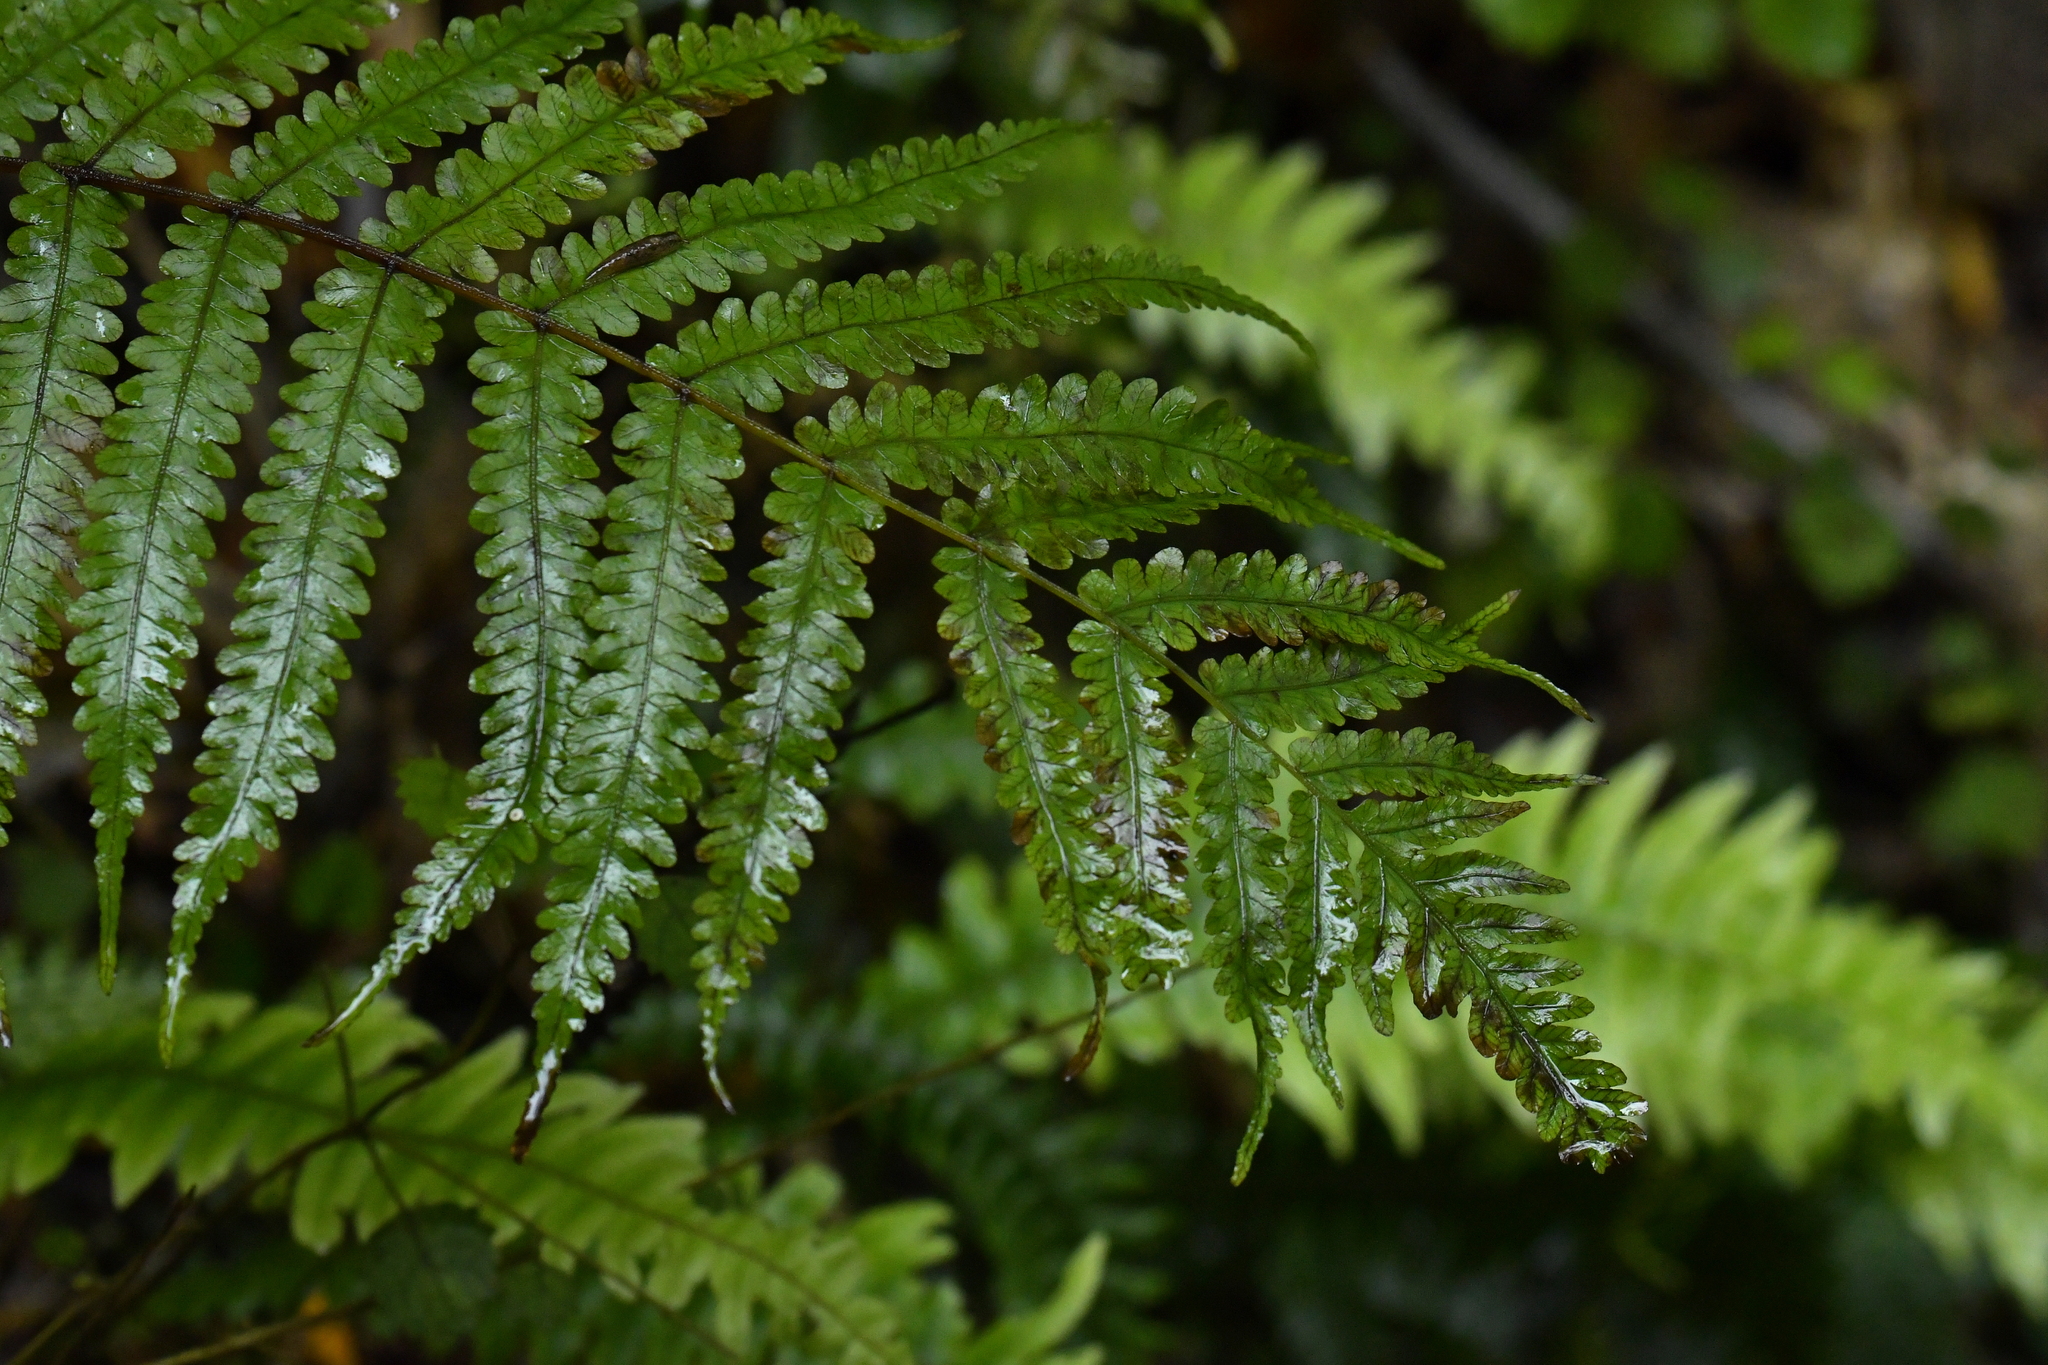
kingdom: Plantae
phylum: Tracheophyta
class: Polypodiopsida
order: Polypodiales
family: Thelypteridaceae
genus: Pakau
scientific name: Pakau pennigera
